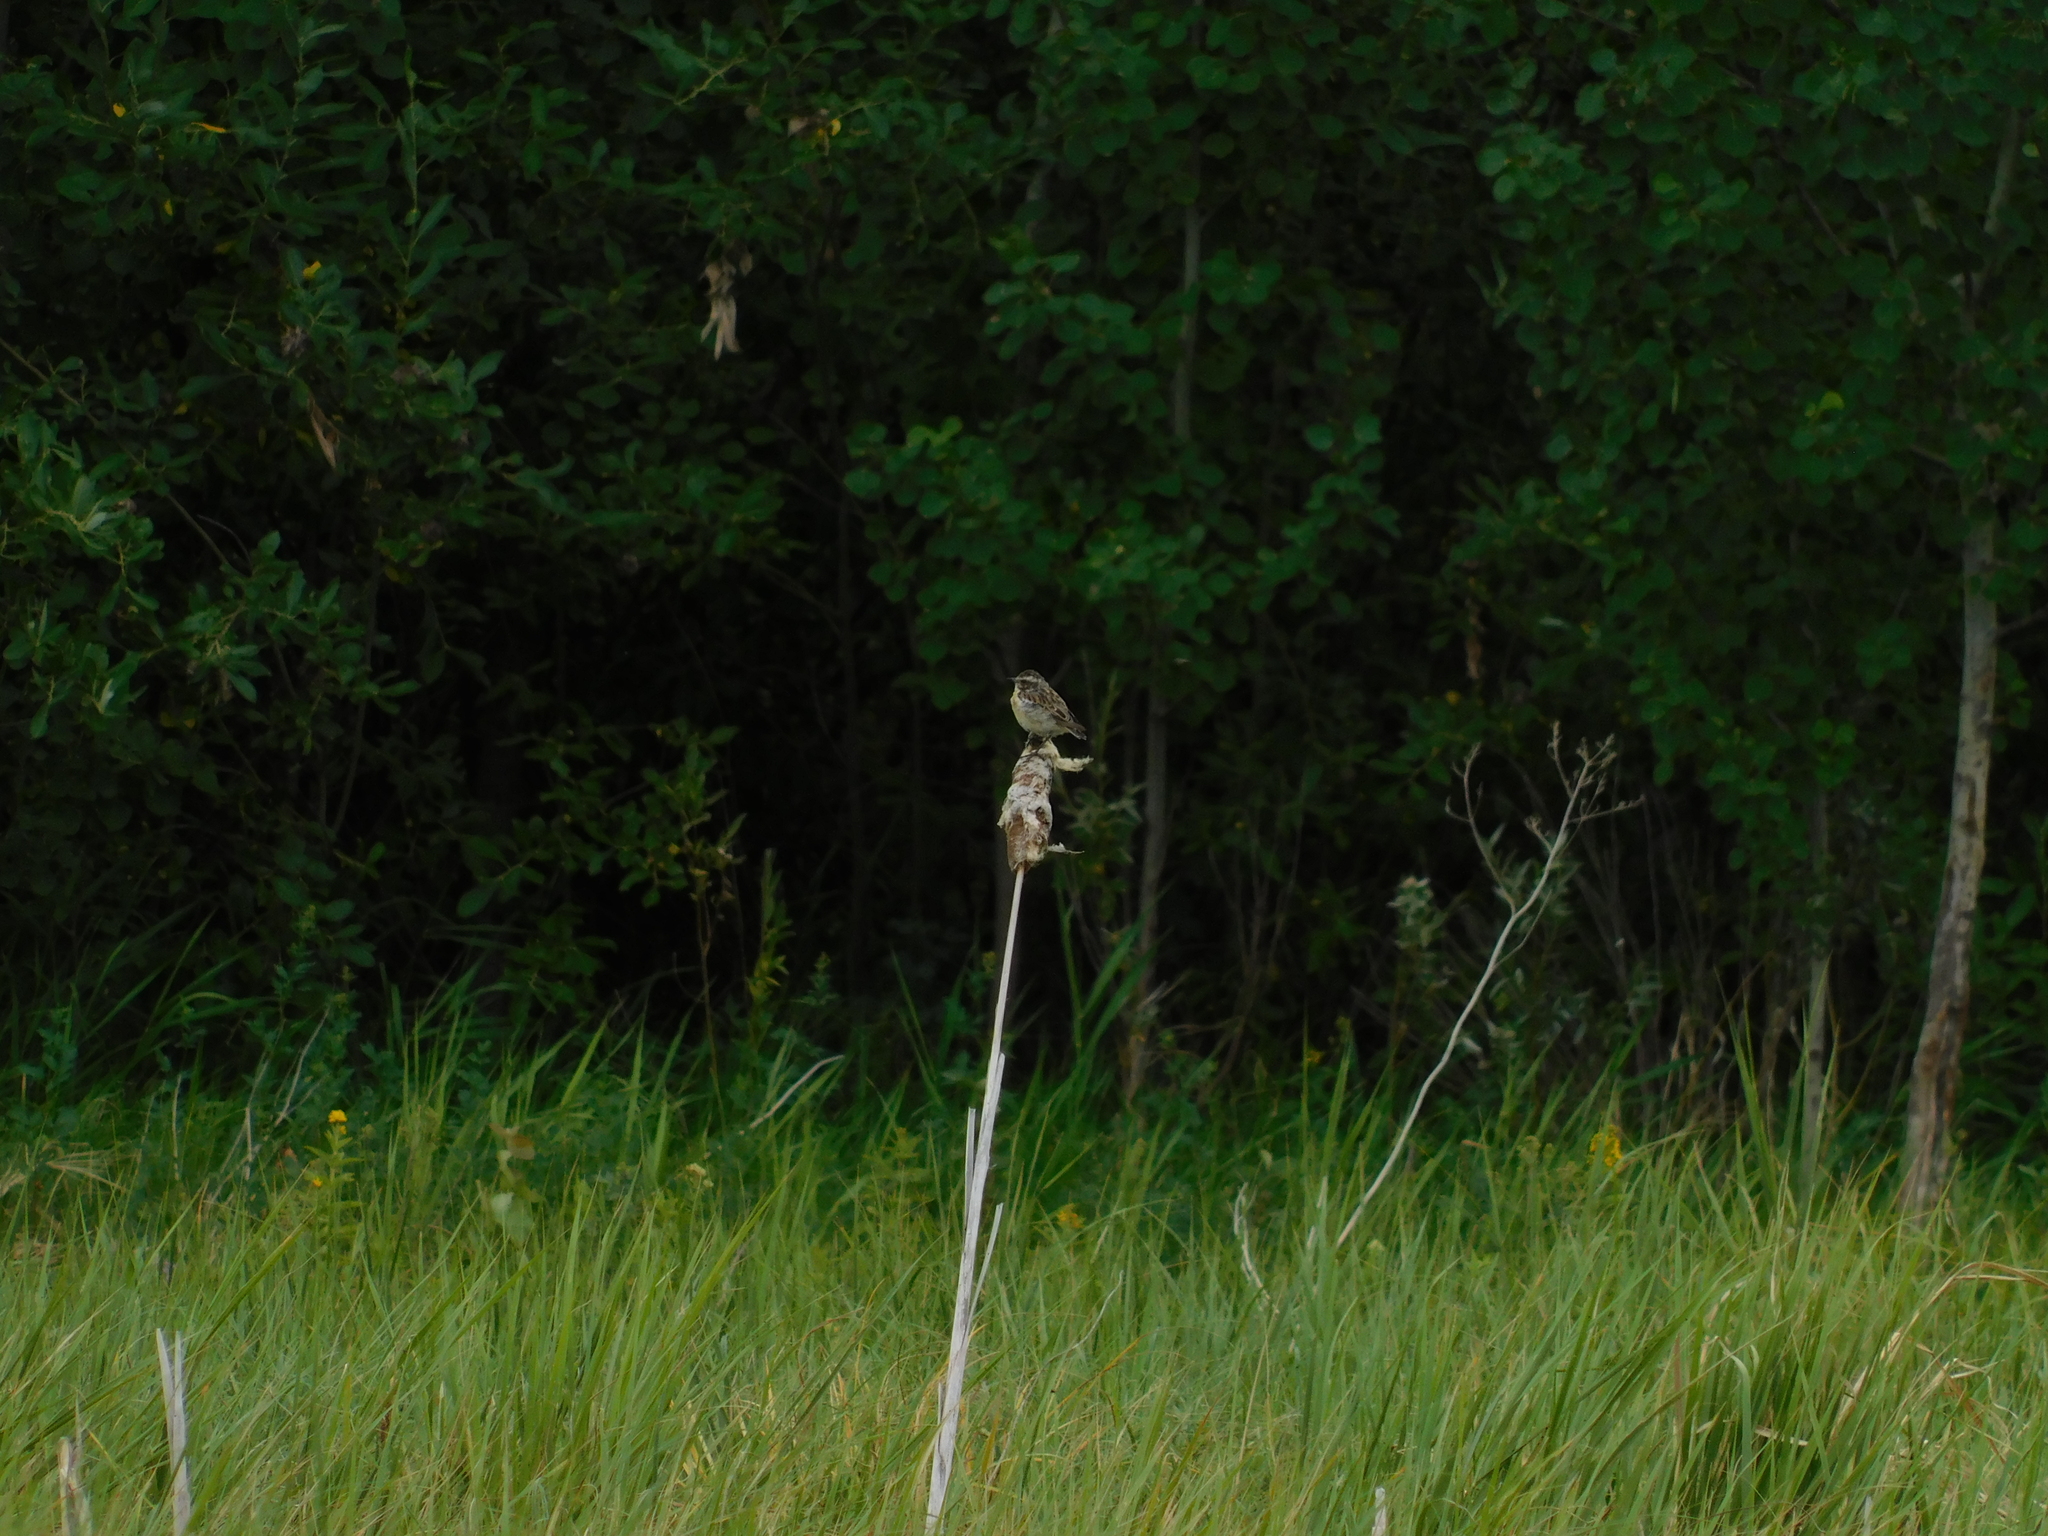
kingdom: Animalia
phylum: Chordata
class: Aves
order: Passeriformes
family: Muscicapidae
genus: Saxicola
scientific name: Saxicola rubetra
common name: Whinchat
